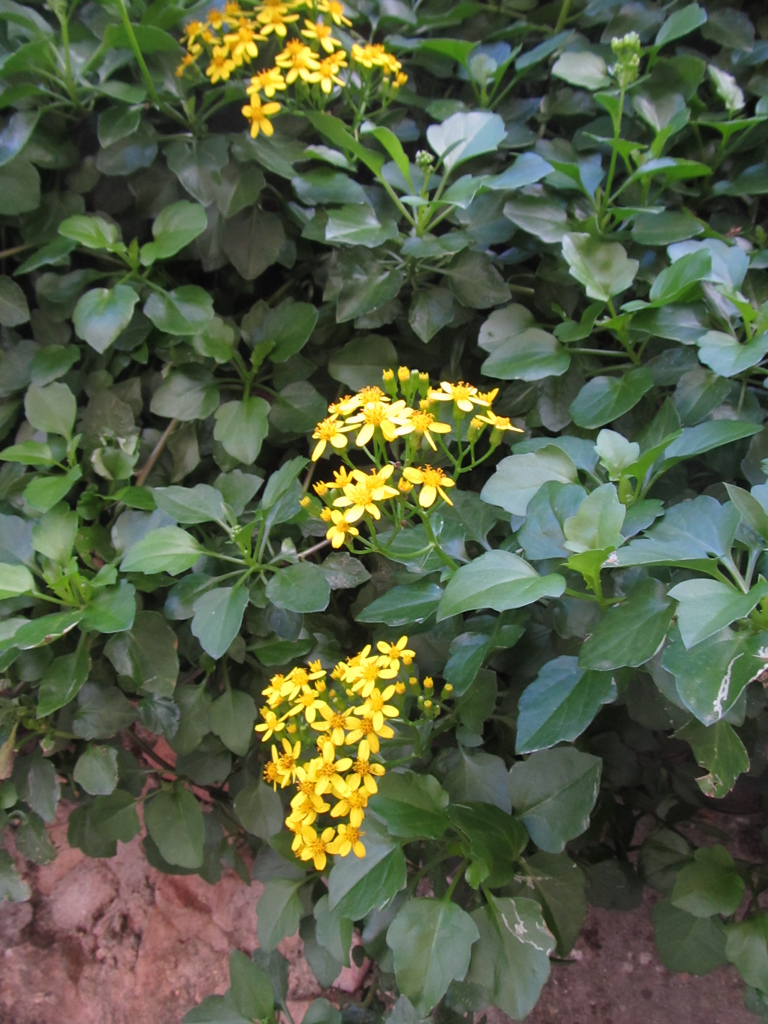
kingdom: Plantae
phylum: Tracheophyta
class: Magnoliopsida
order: Asterales
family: Asteraceae
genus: Senecio
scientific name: Senecio angulatus
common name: Climbing groundsel
